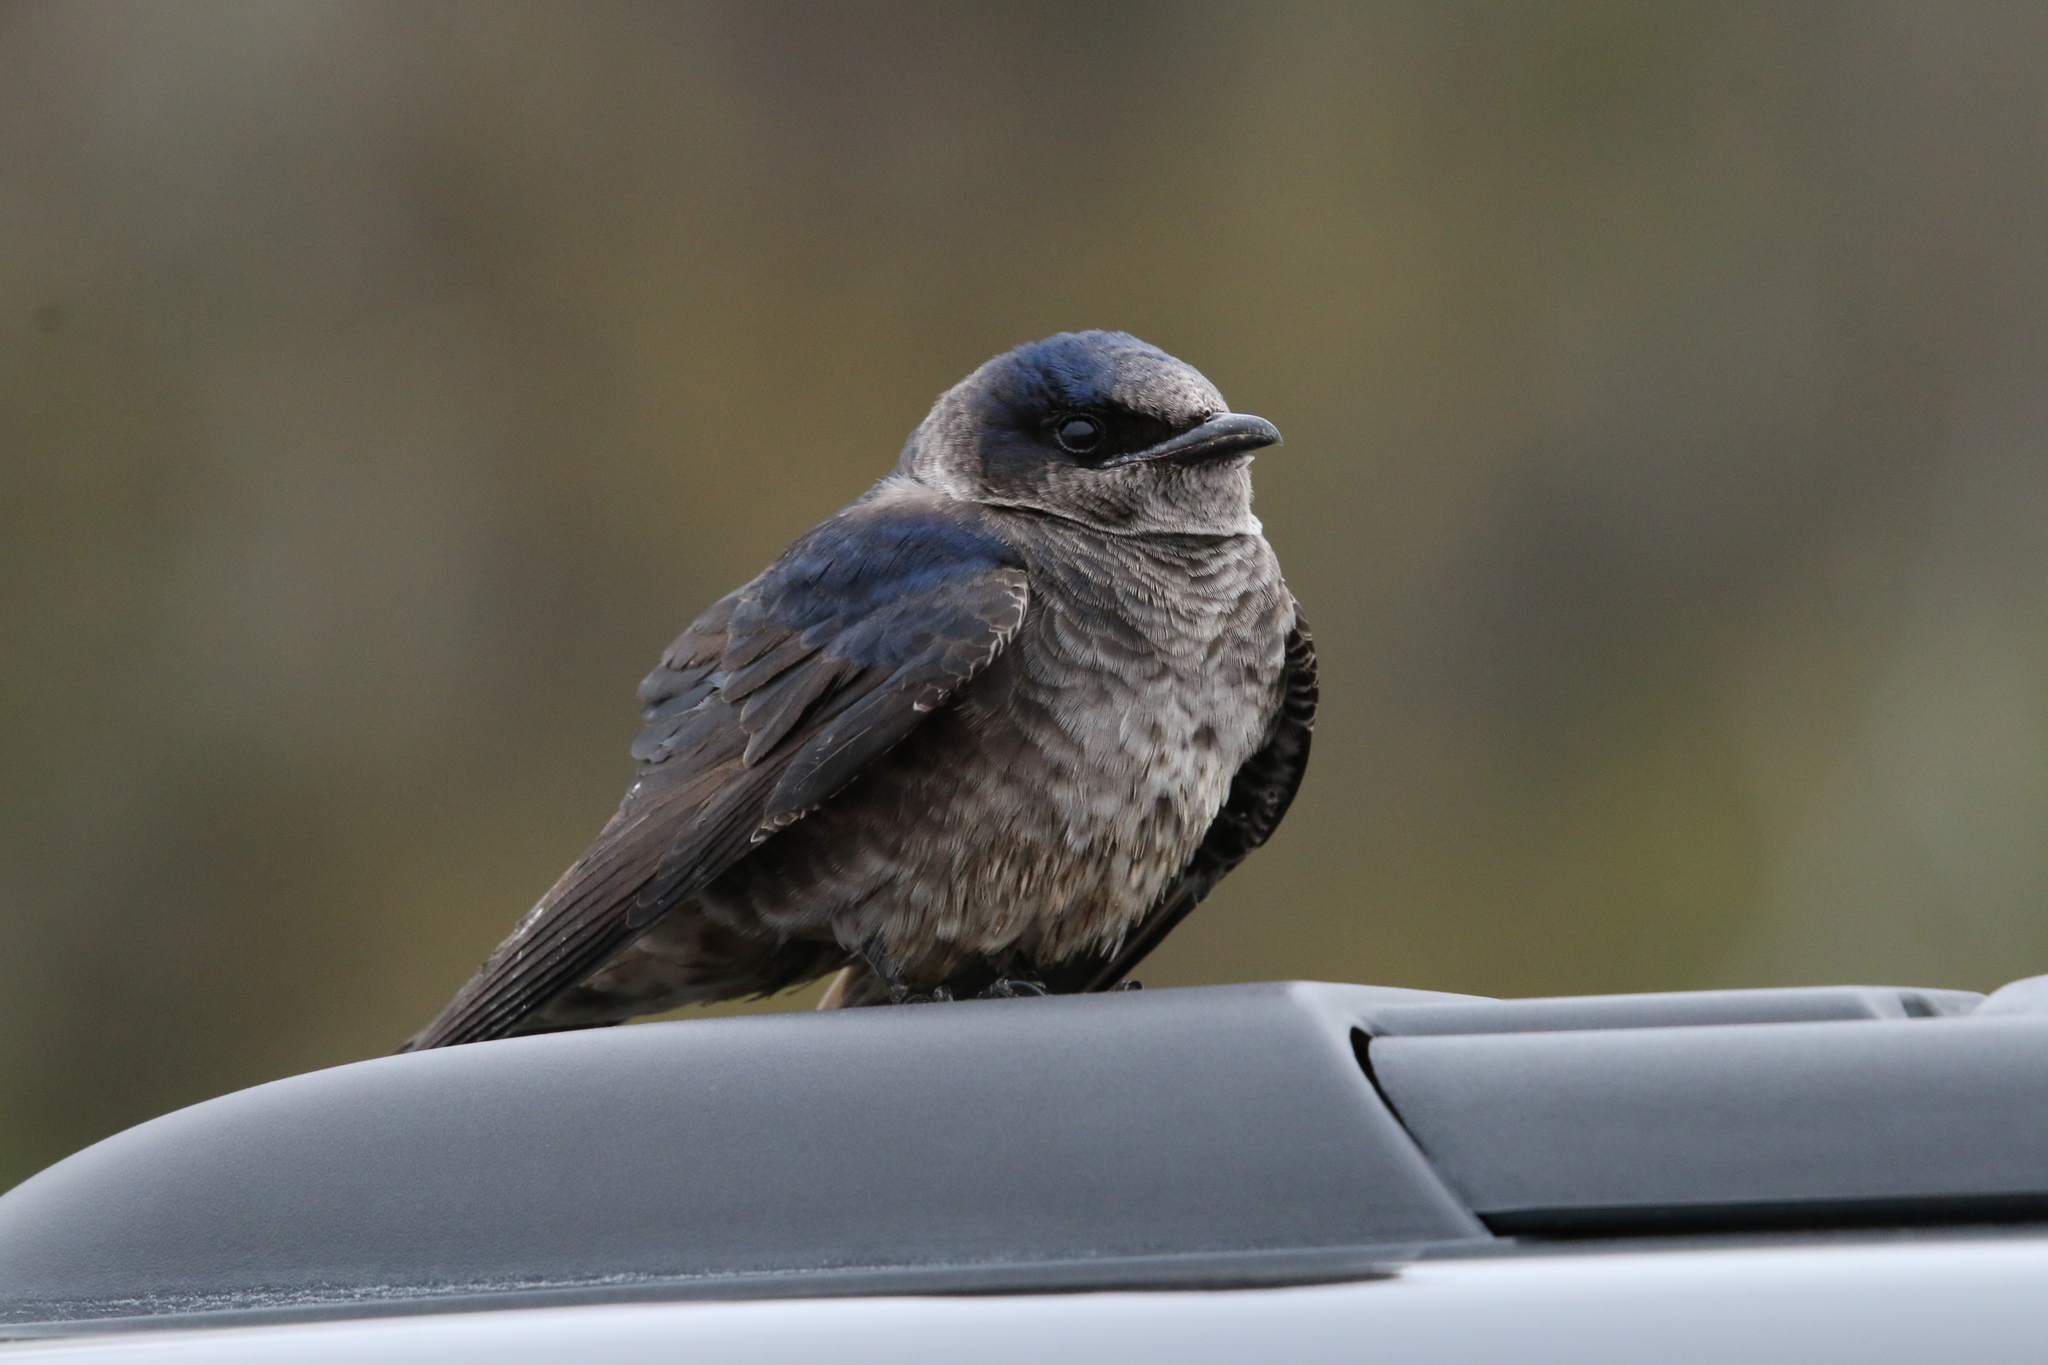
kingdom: Animalia
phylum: Chordata
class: Aves
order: Passeriformes
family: Hirundinidae
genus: Progne
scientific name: Progne subis
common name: Purple martin
